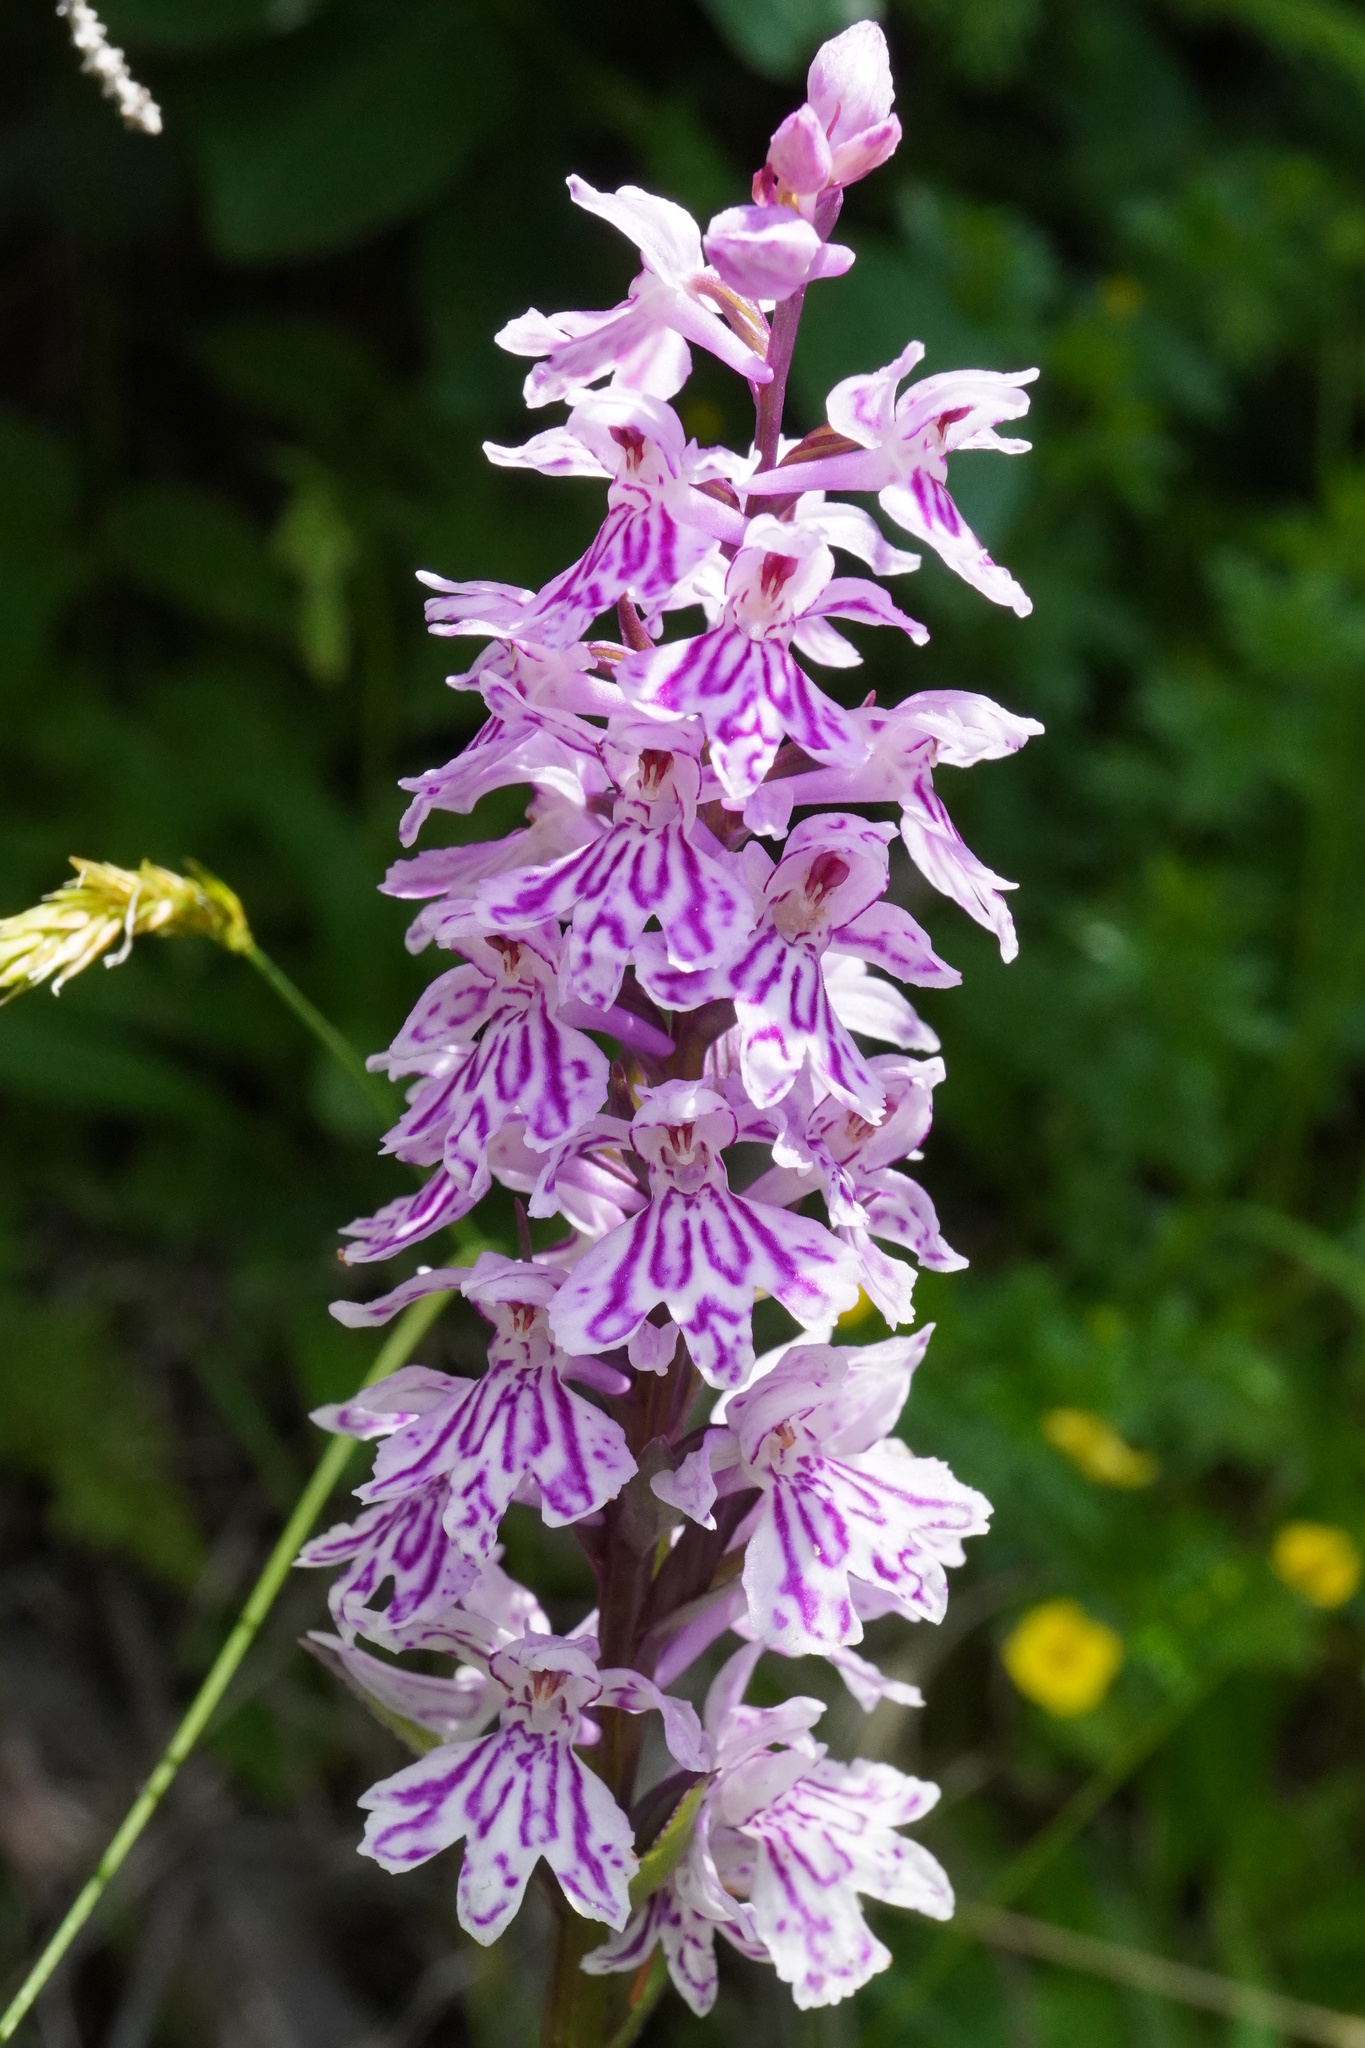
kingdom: Plantae
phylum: Tracheophyta
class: Liliopsida
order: Asparagales
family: Orchidaceae
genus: Dactylorhiza
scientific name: Dactylorhiza maculata
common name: Heath spotted-orchid
